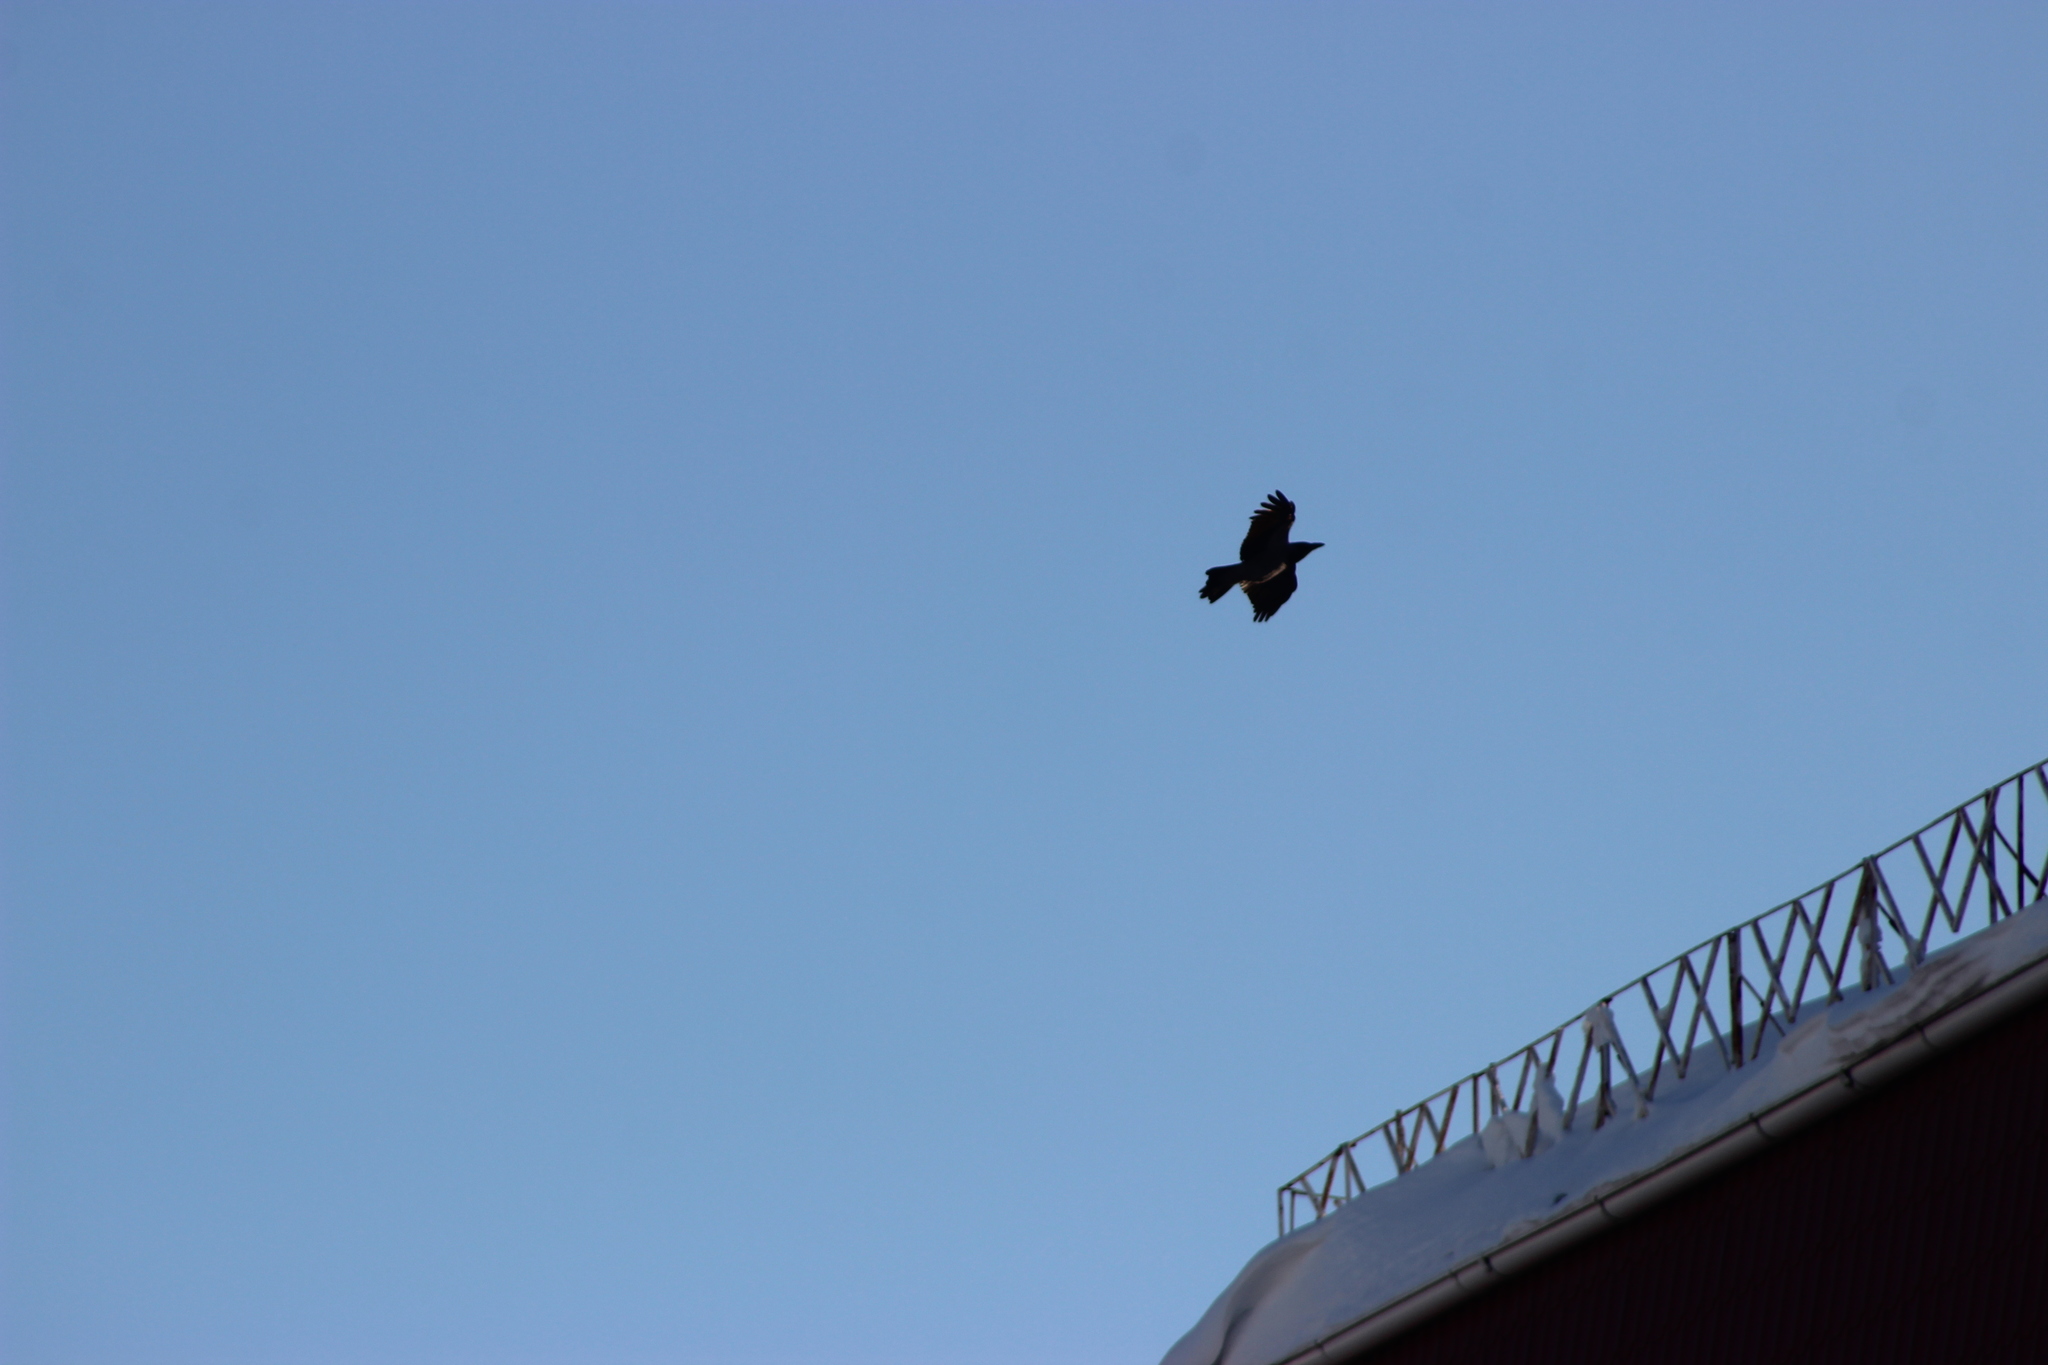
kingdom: Animalia
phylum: Chordata
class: Aves
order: Passeriformes
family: Corvidae
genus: Corvus
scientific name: Corvus cornix
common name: Hooded crow
